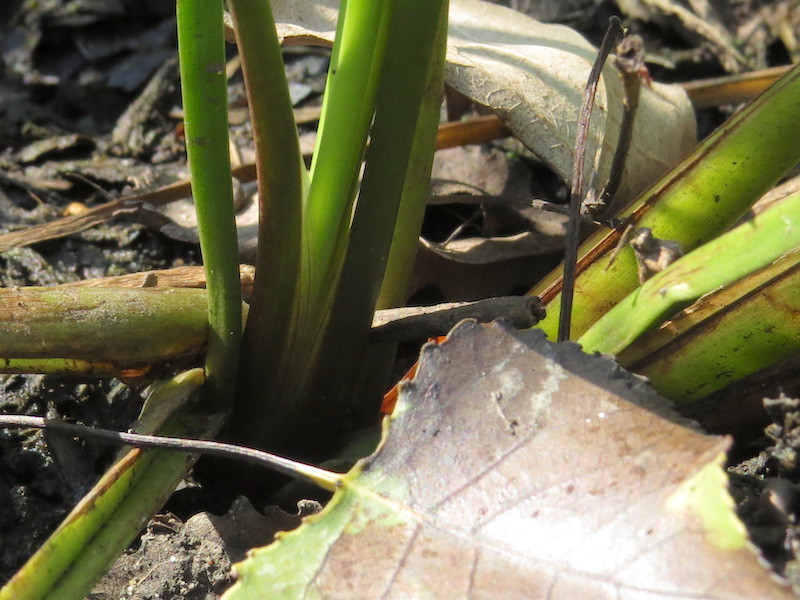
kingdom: Plantae
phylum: Tracheophyta
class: Liliopsida
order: Alismatales
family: Butomaceae
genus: Butomus
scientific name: Butomus umbellatus
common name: Flowering-rush
